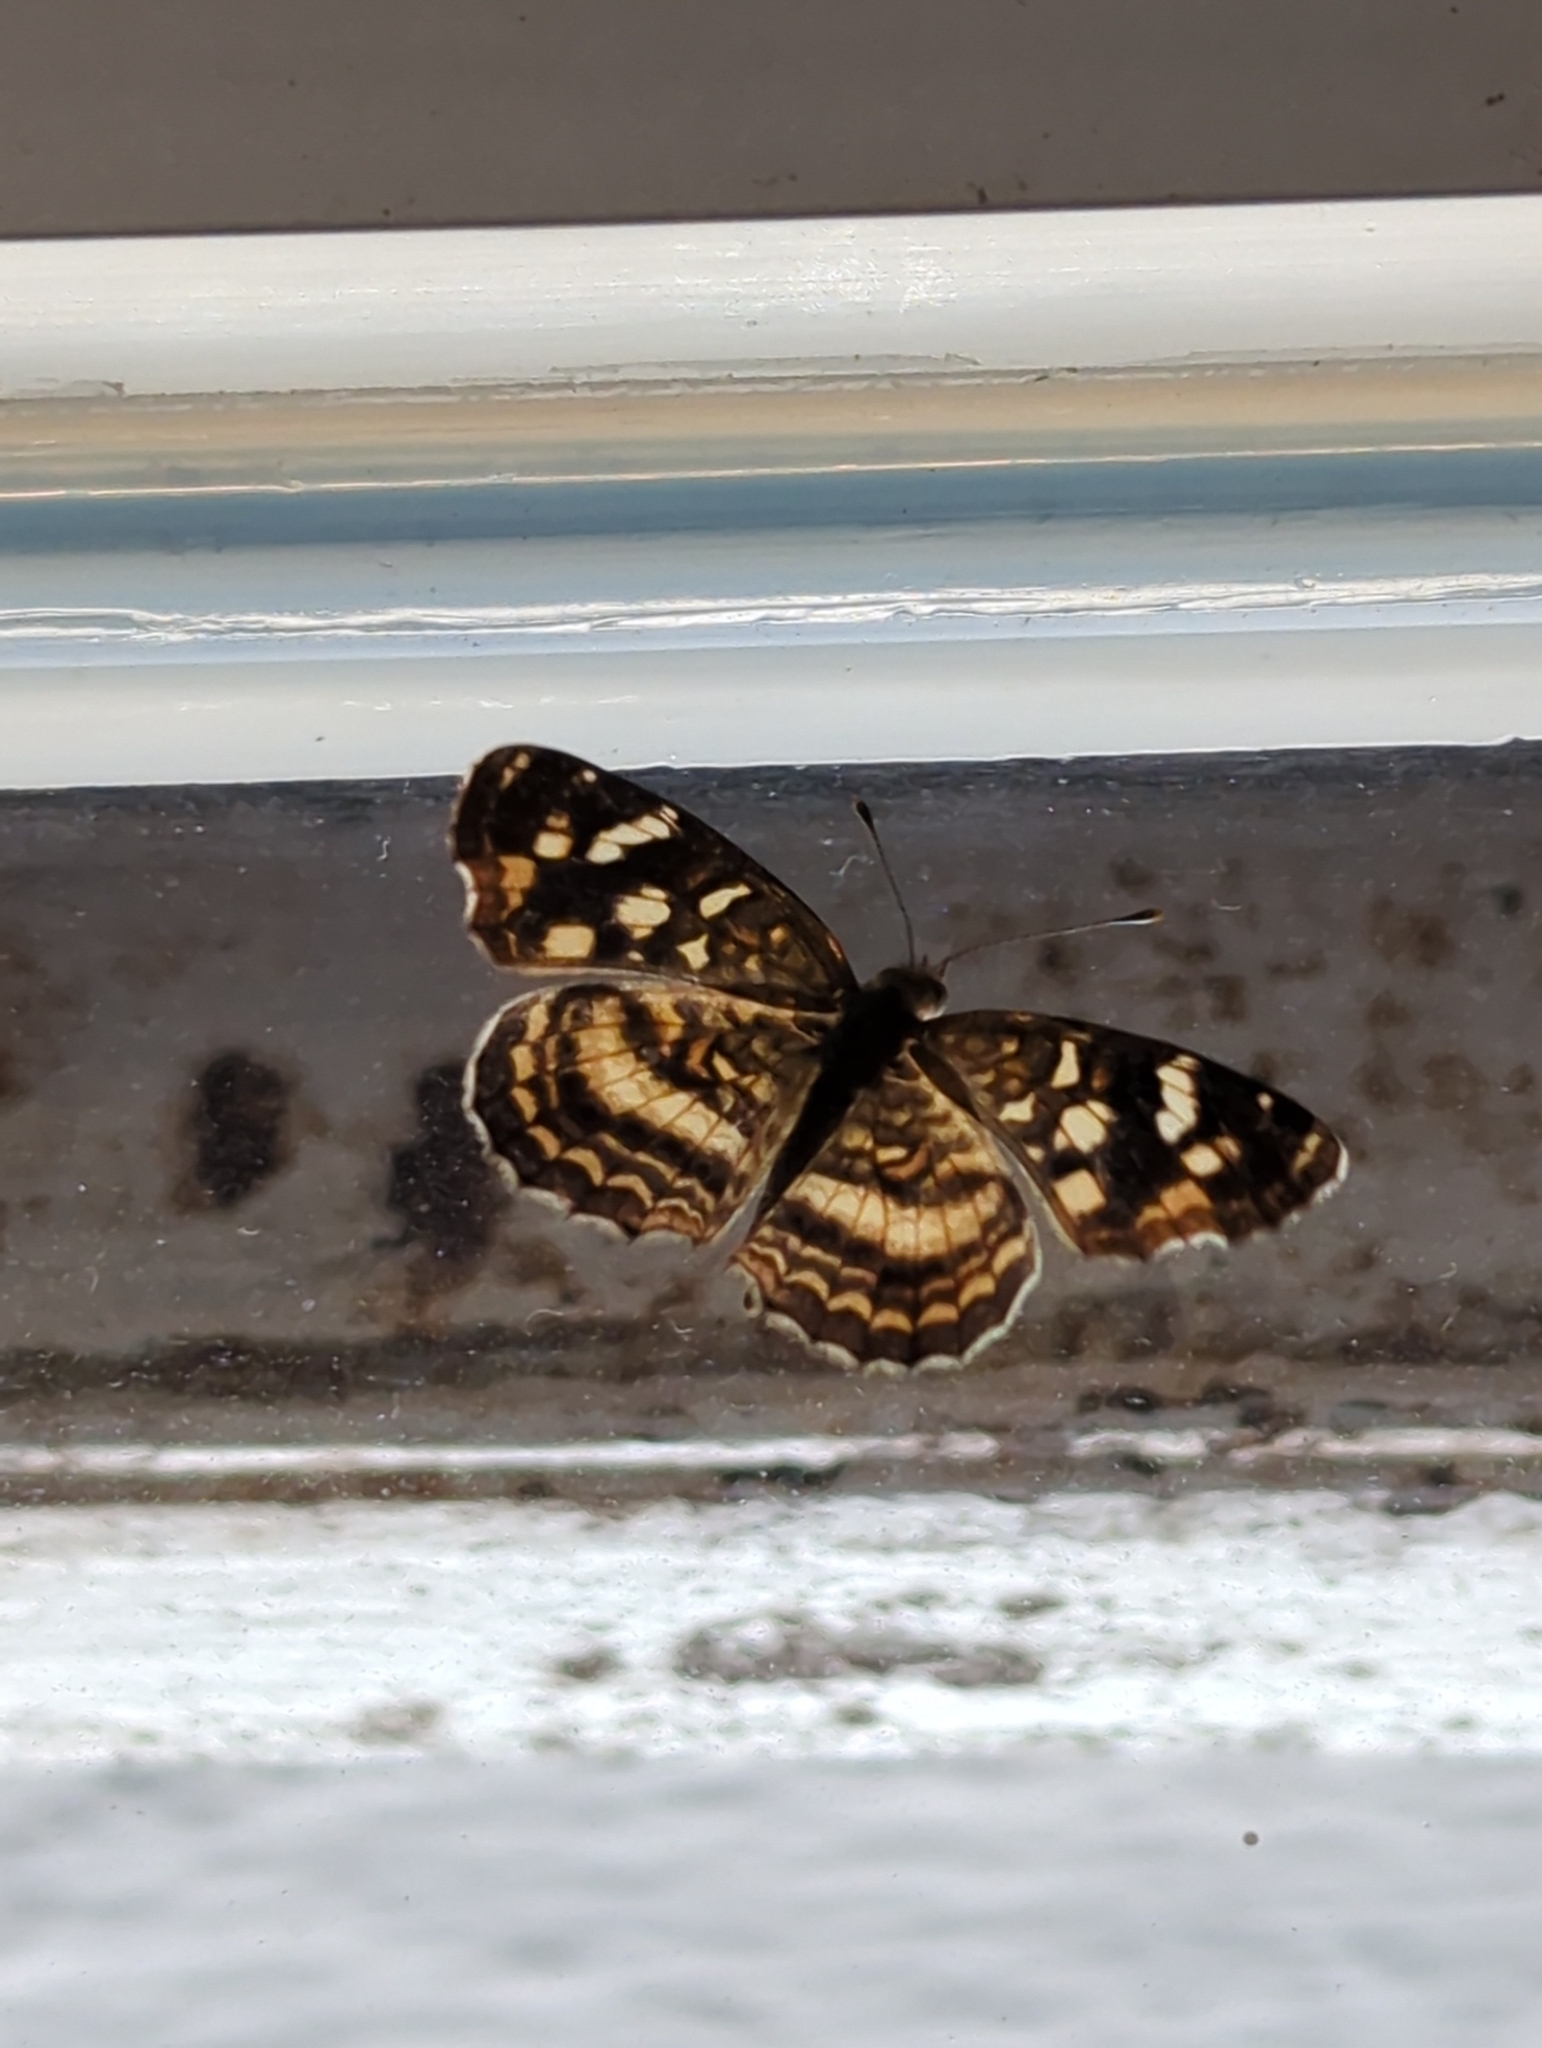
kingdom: Animalia
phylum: Arthropoda
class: Insecta
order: Lepidoptera
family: Nymphalidae
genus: Anthanassa
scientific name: Anthanassa tulcis
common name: Pale-banded crescent
